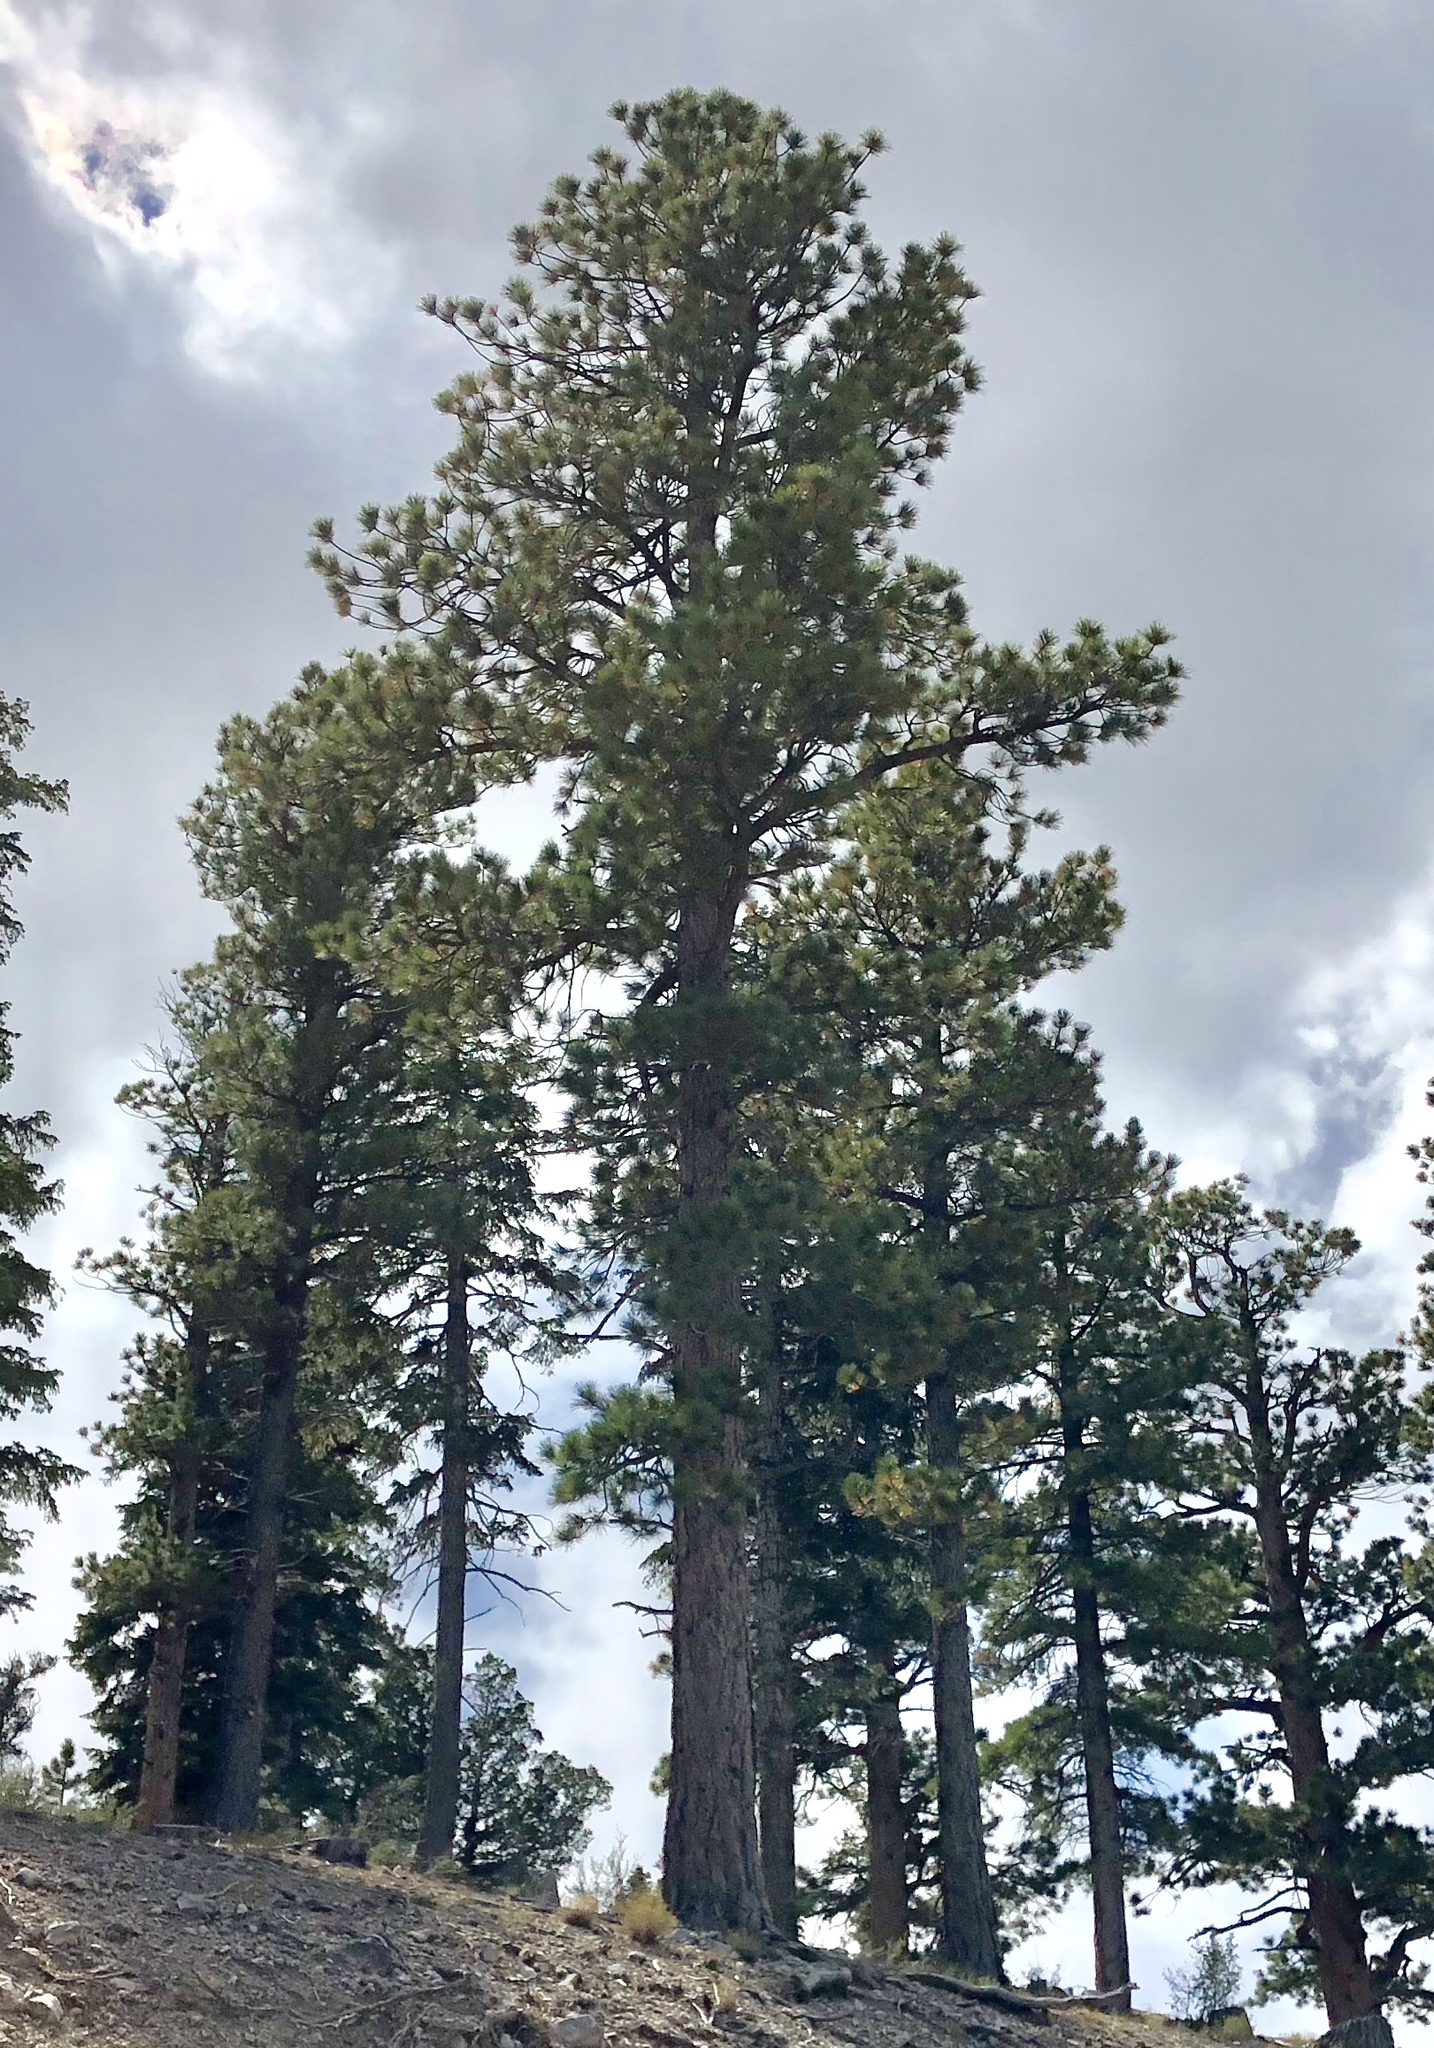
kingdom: Plantae
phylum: Tracheophyta
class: Pinopsida
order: Pinales
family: Pinaceae
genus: Pinus
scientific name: Pinus ponderosa
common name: Western yellow-pine
